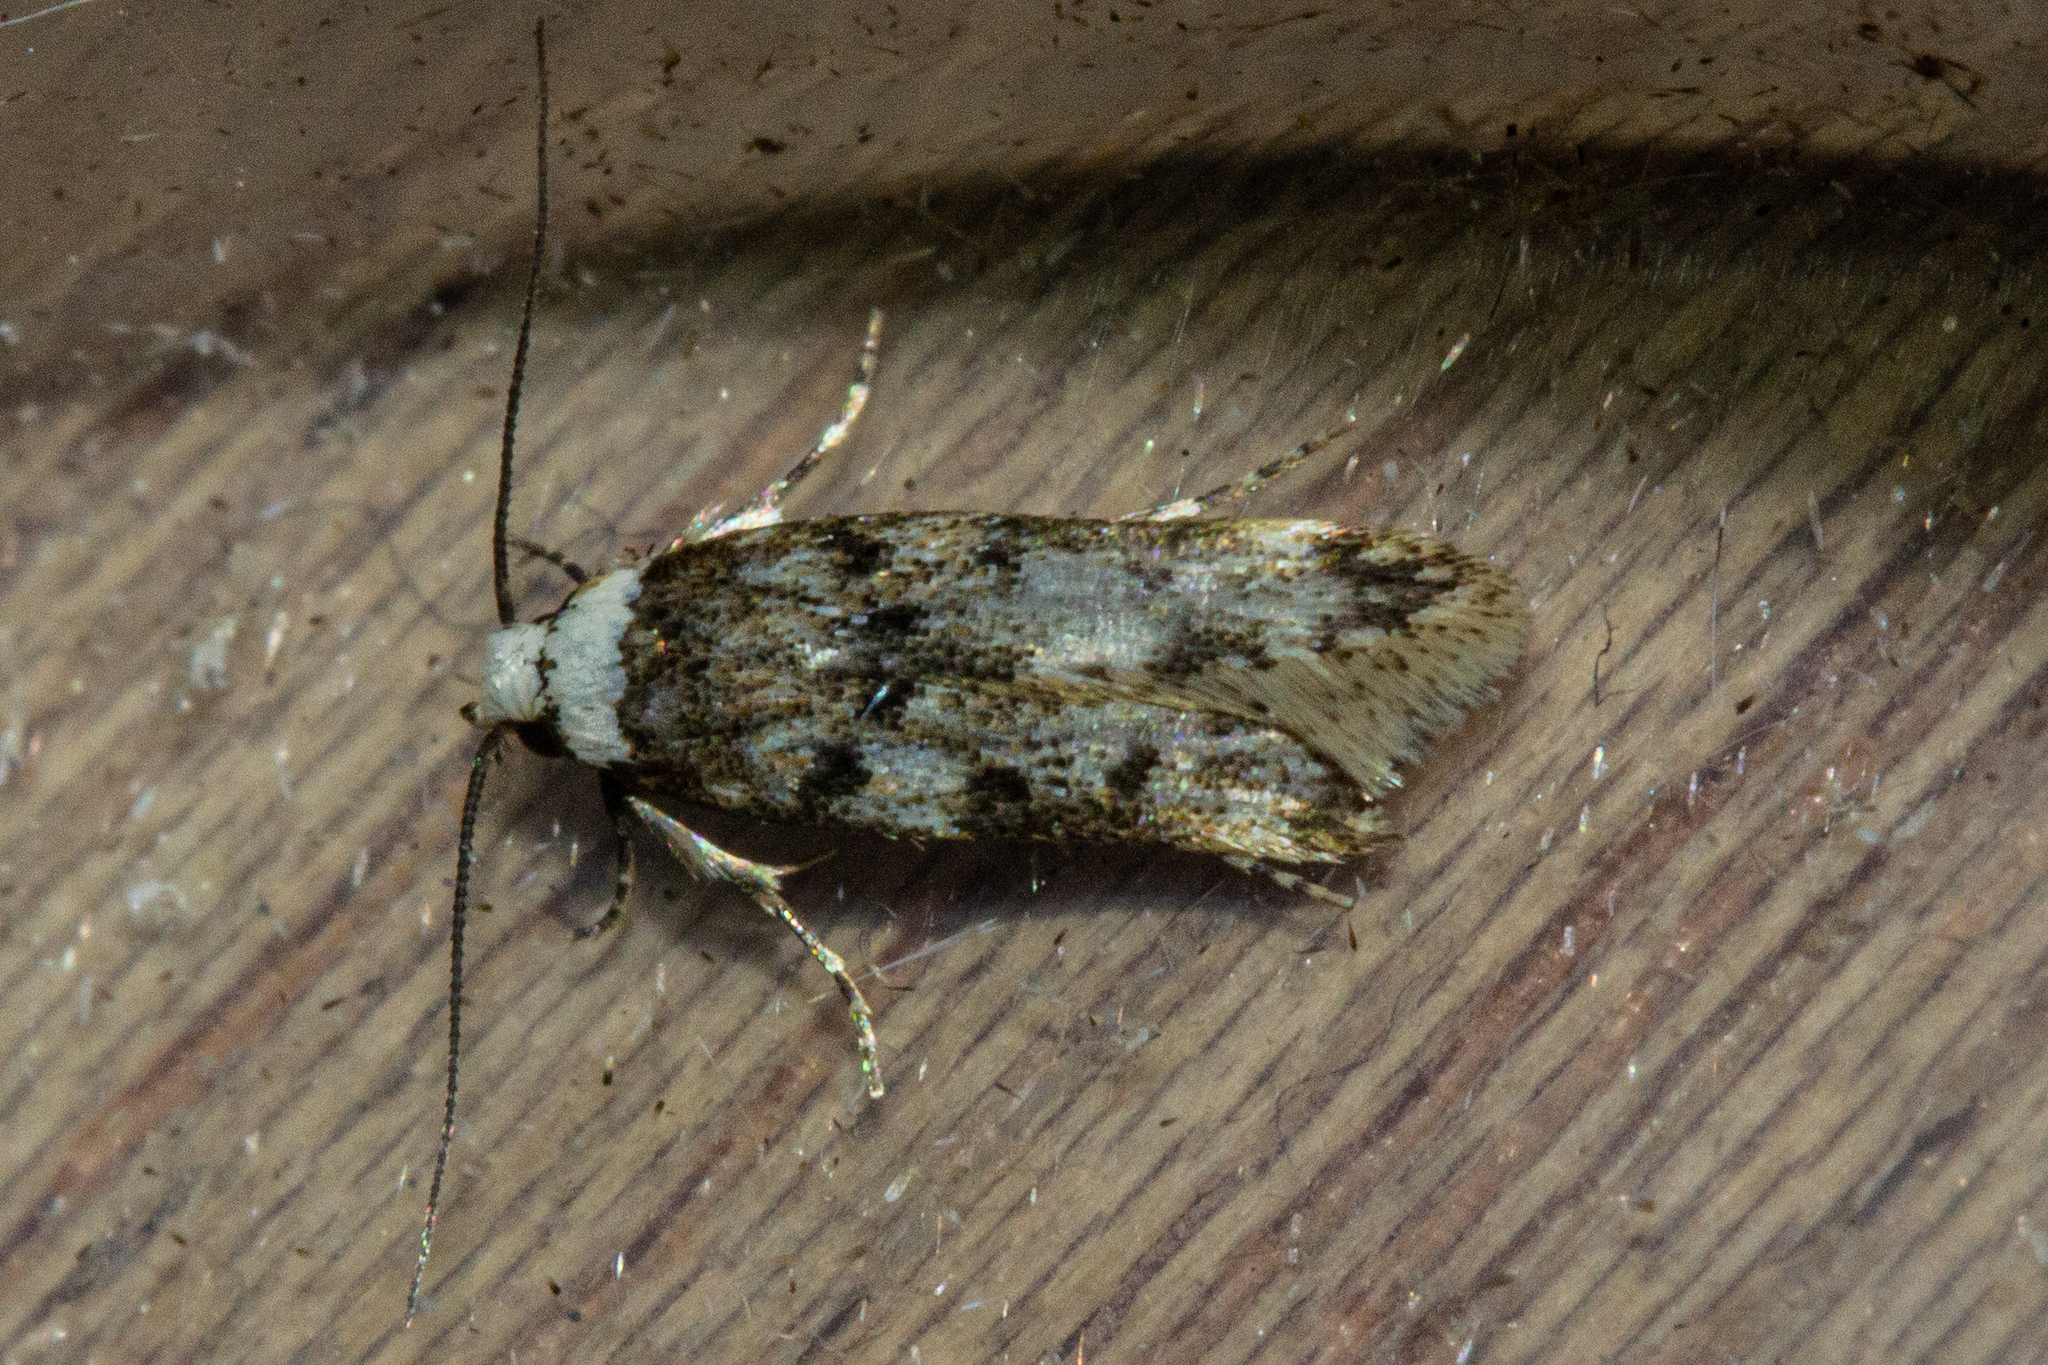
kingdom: Animalia
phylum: Arthropoda
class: Insecta
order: Lepidoptera
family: Oecophoridae
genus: Endrosis
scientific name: Endrosis sarcitrella
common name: White-shouldered house moth
